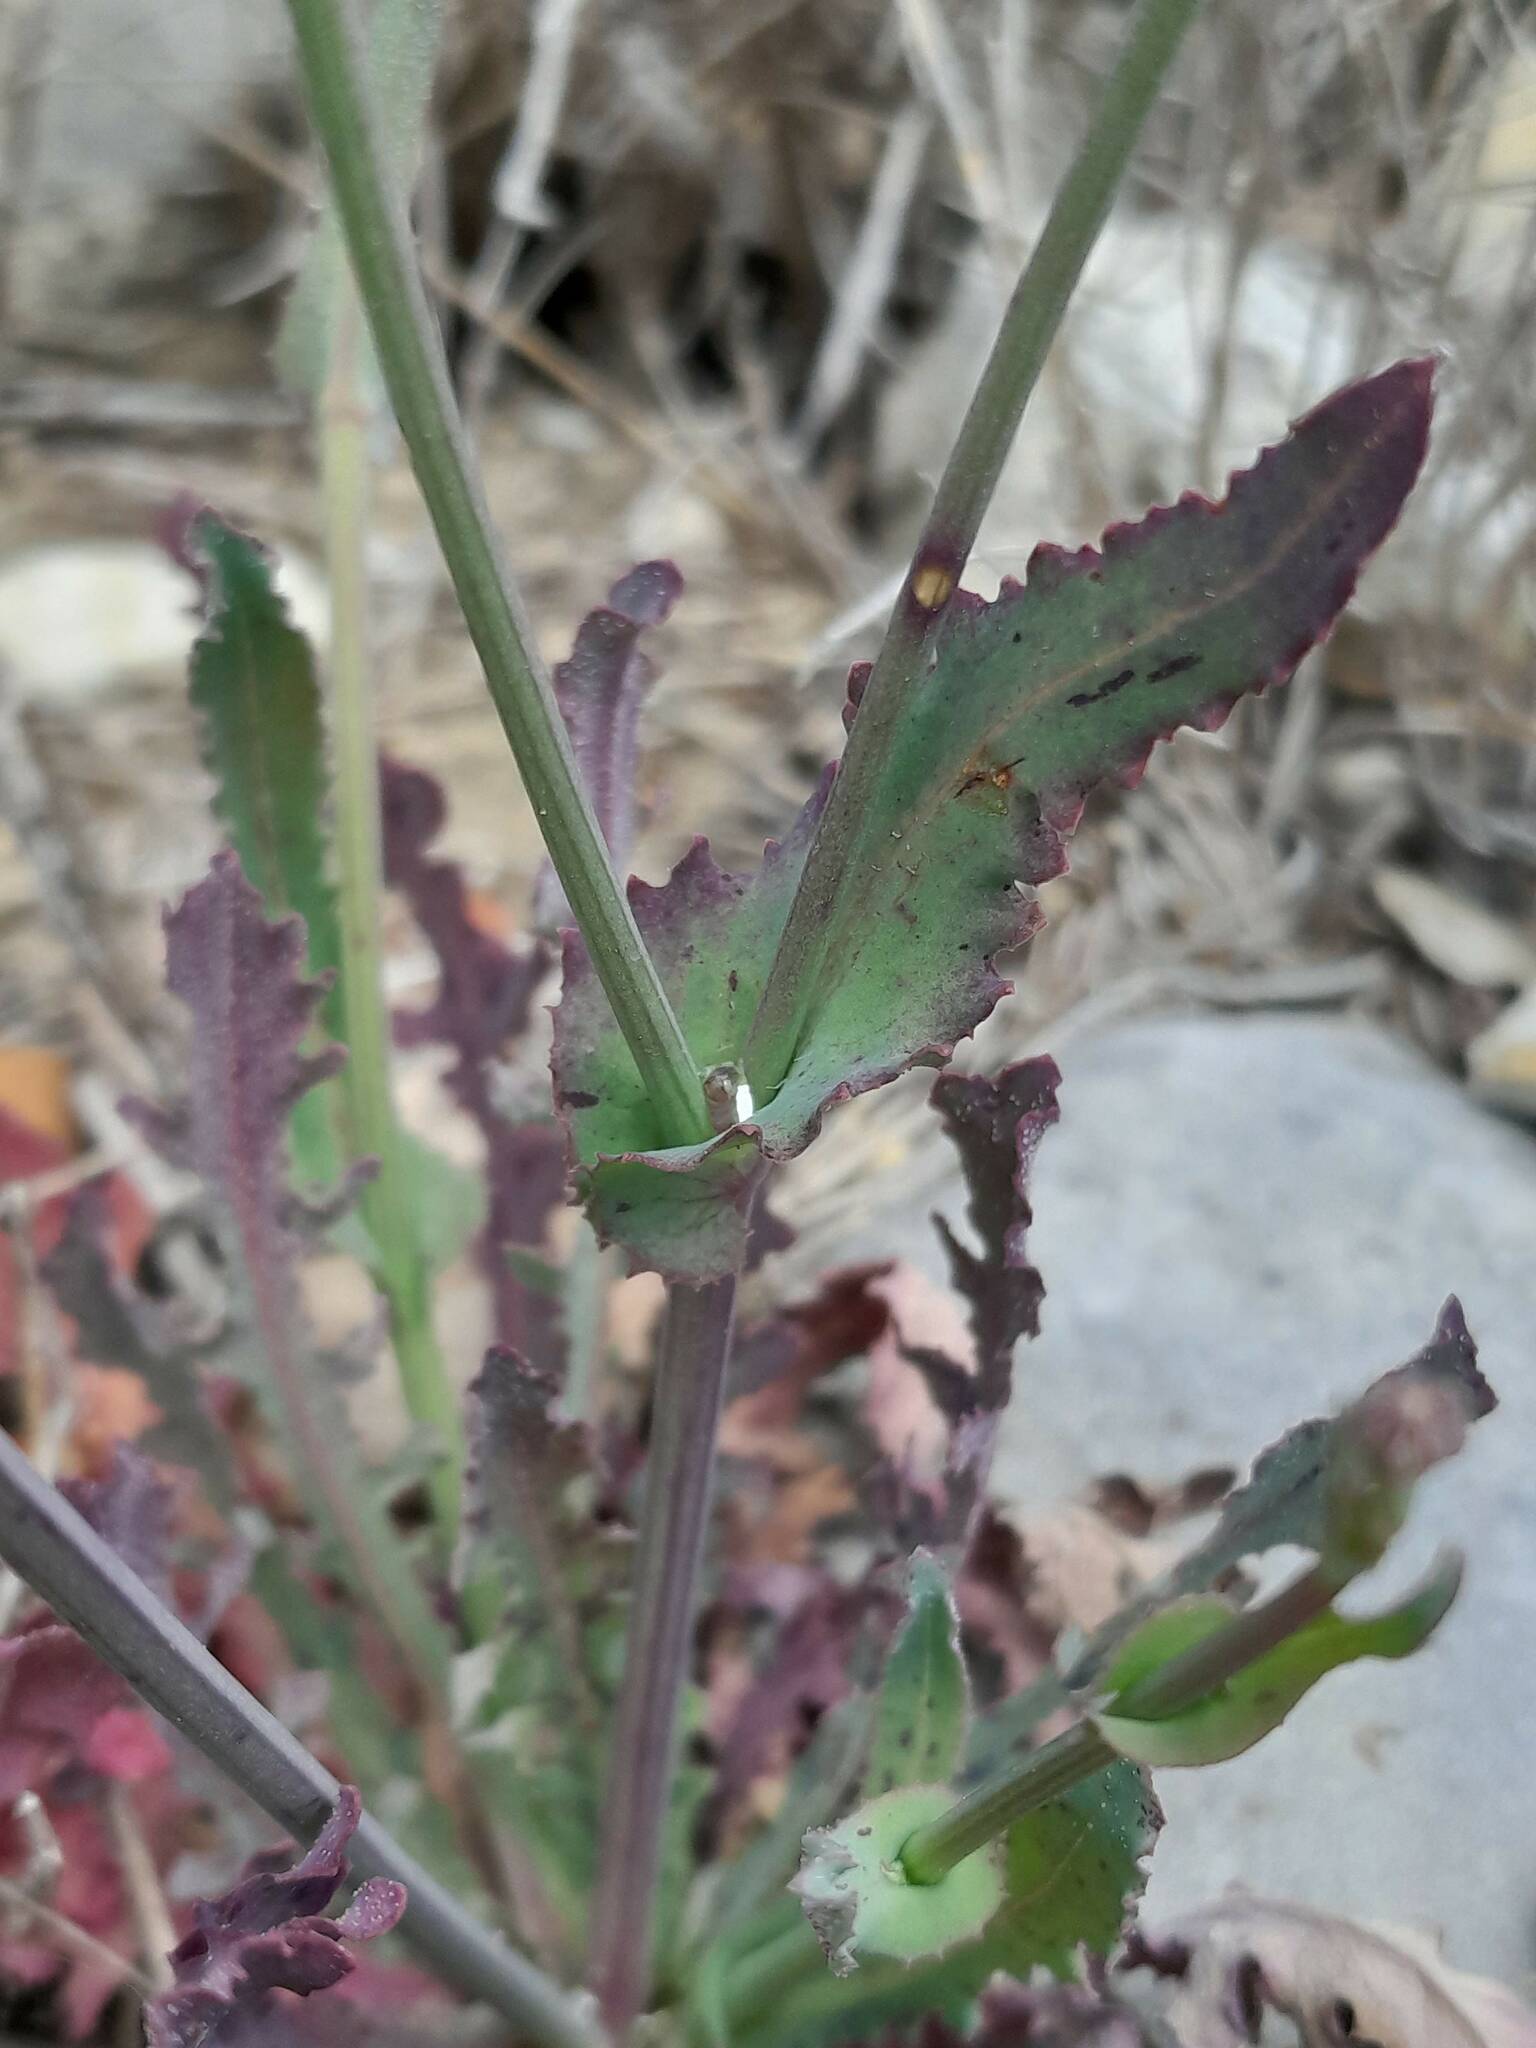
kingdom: Plantae
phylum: Tracheophyta
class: Magnoliopsida
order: Asterales
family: Asteraceae
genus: Reichardia
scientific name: Reichardia picroides
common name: Common brighteyes
